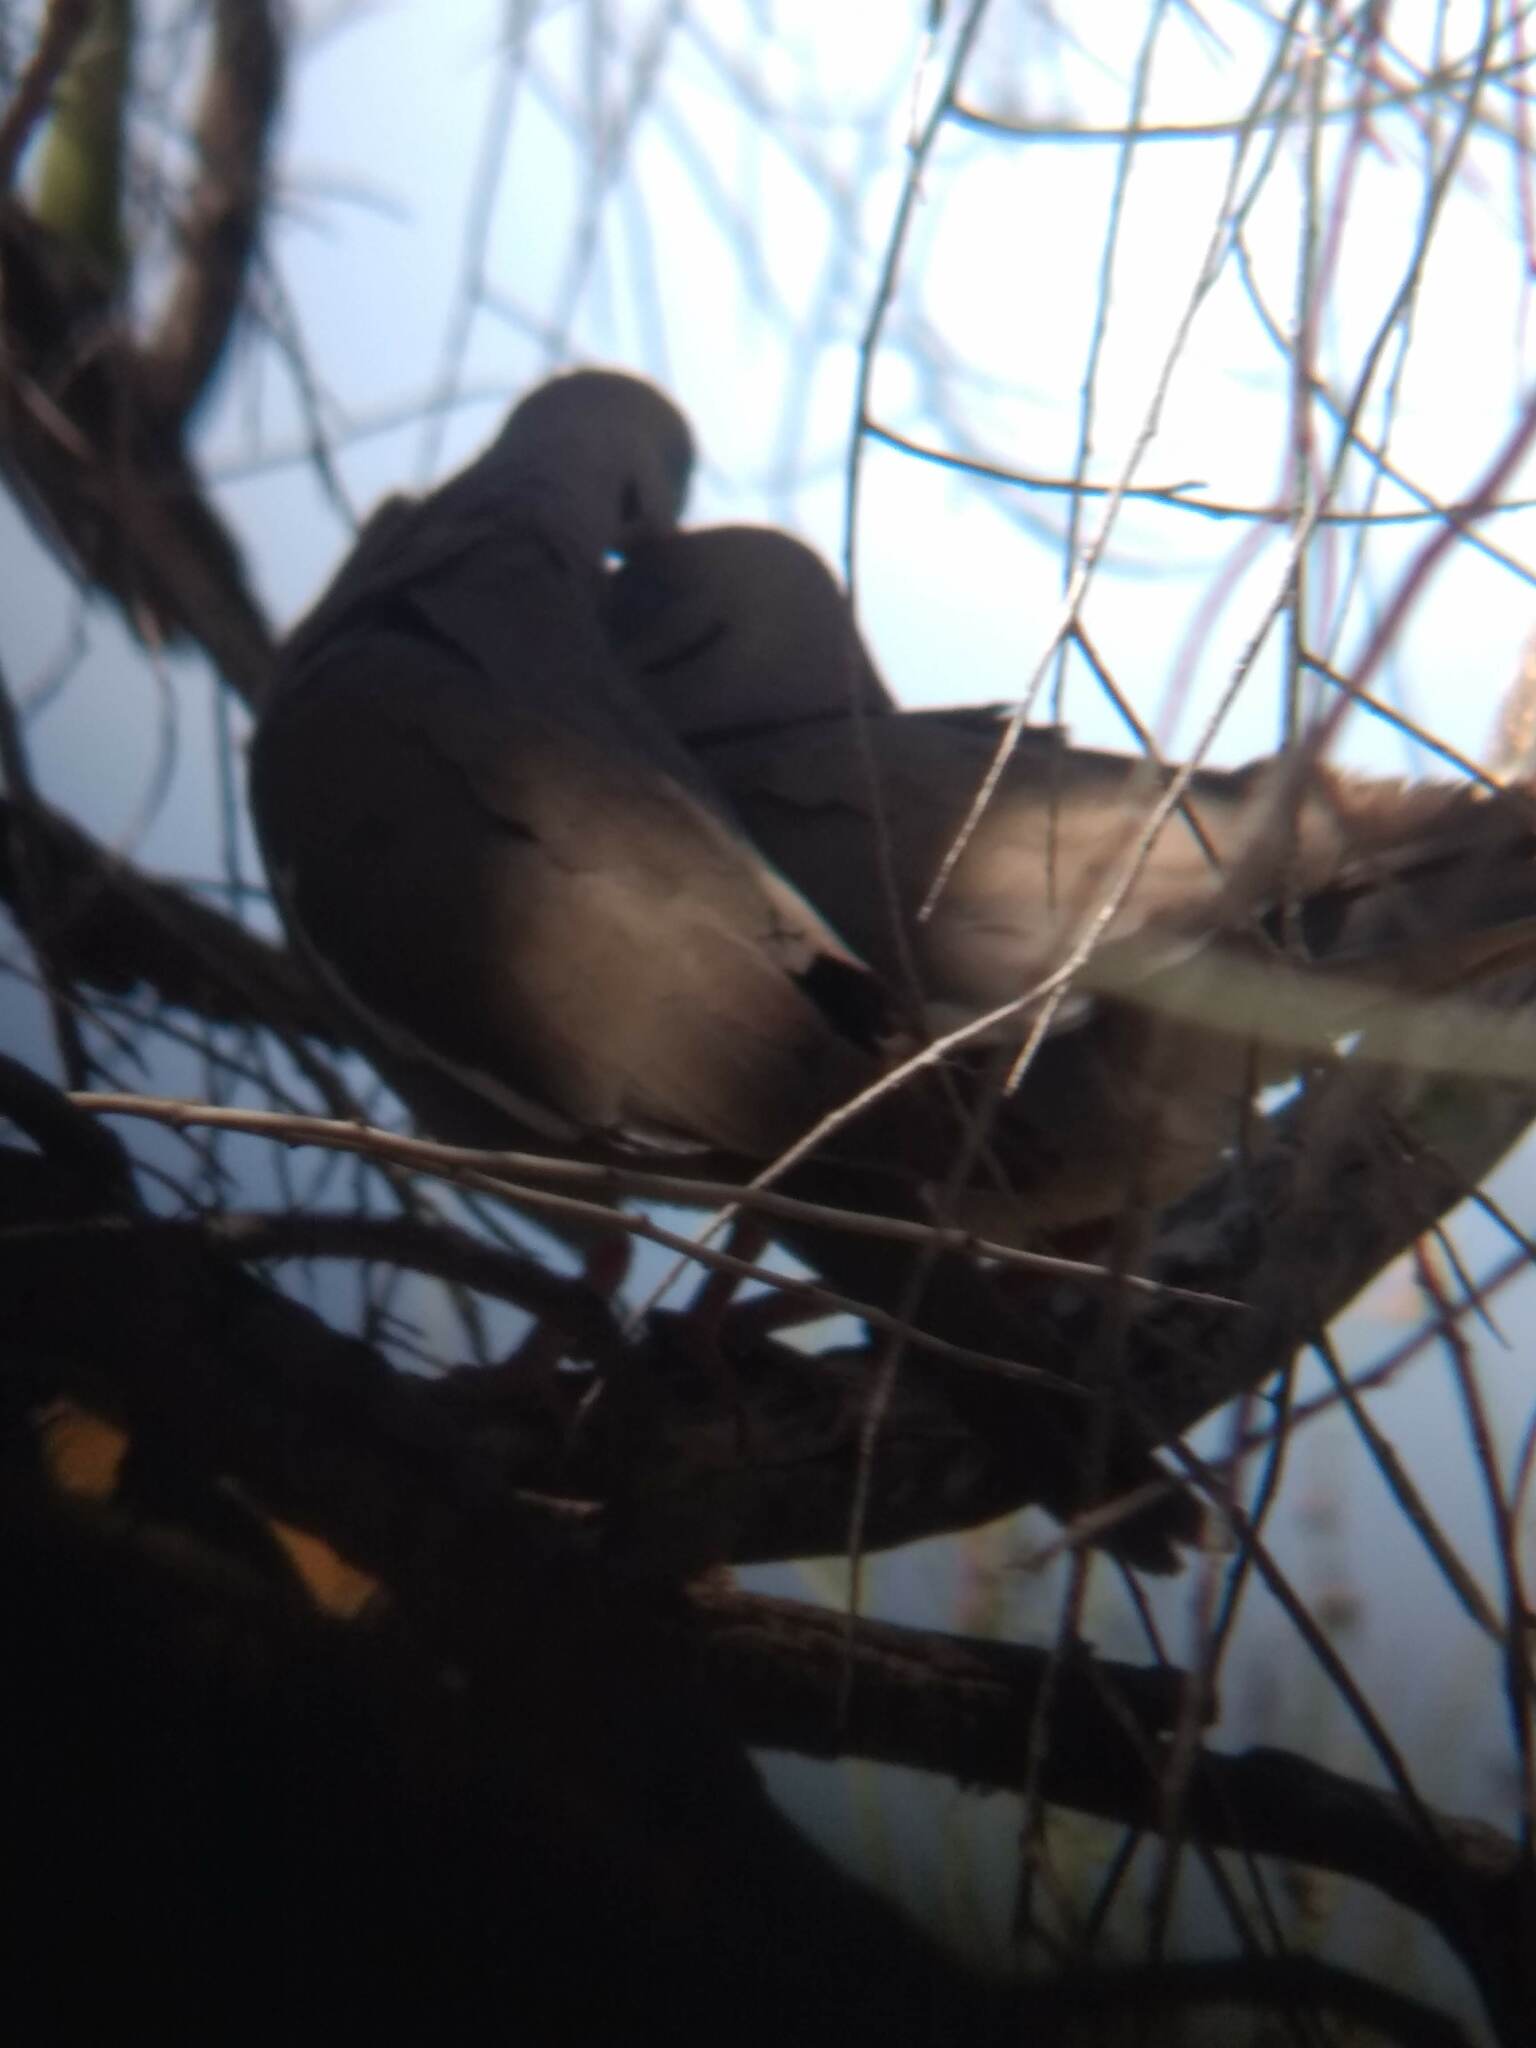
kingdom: Animalia
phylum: Chordata
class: Aves
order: Columbiformes
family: Columbidae
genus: Zenaida
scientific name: Zenaida asiatica
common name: White-winged dove
